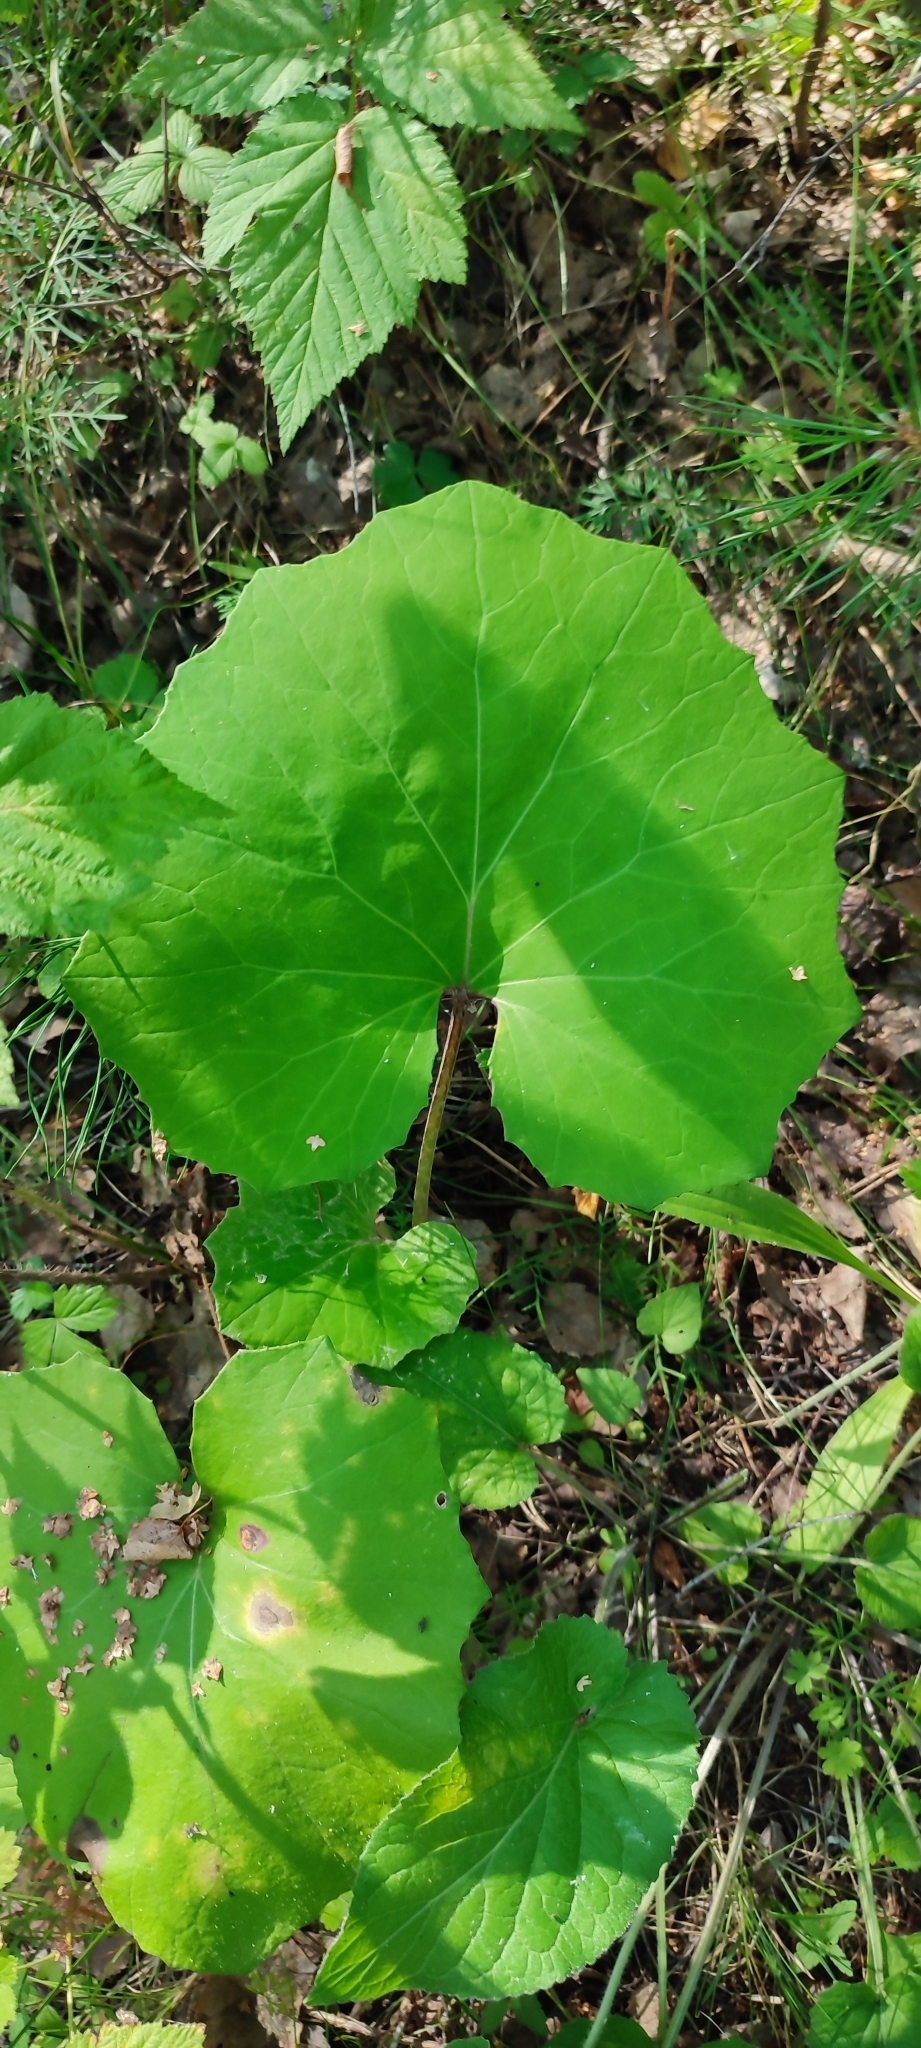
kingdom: Plantae
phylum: Tracheophyta
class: Magnoliopsida
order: Asterales
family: Asteraceae
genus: Tussilago
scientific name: Tussilago farfara
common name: Coltsfoot
